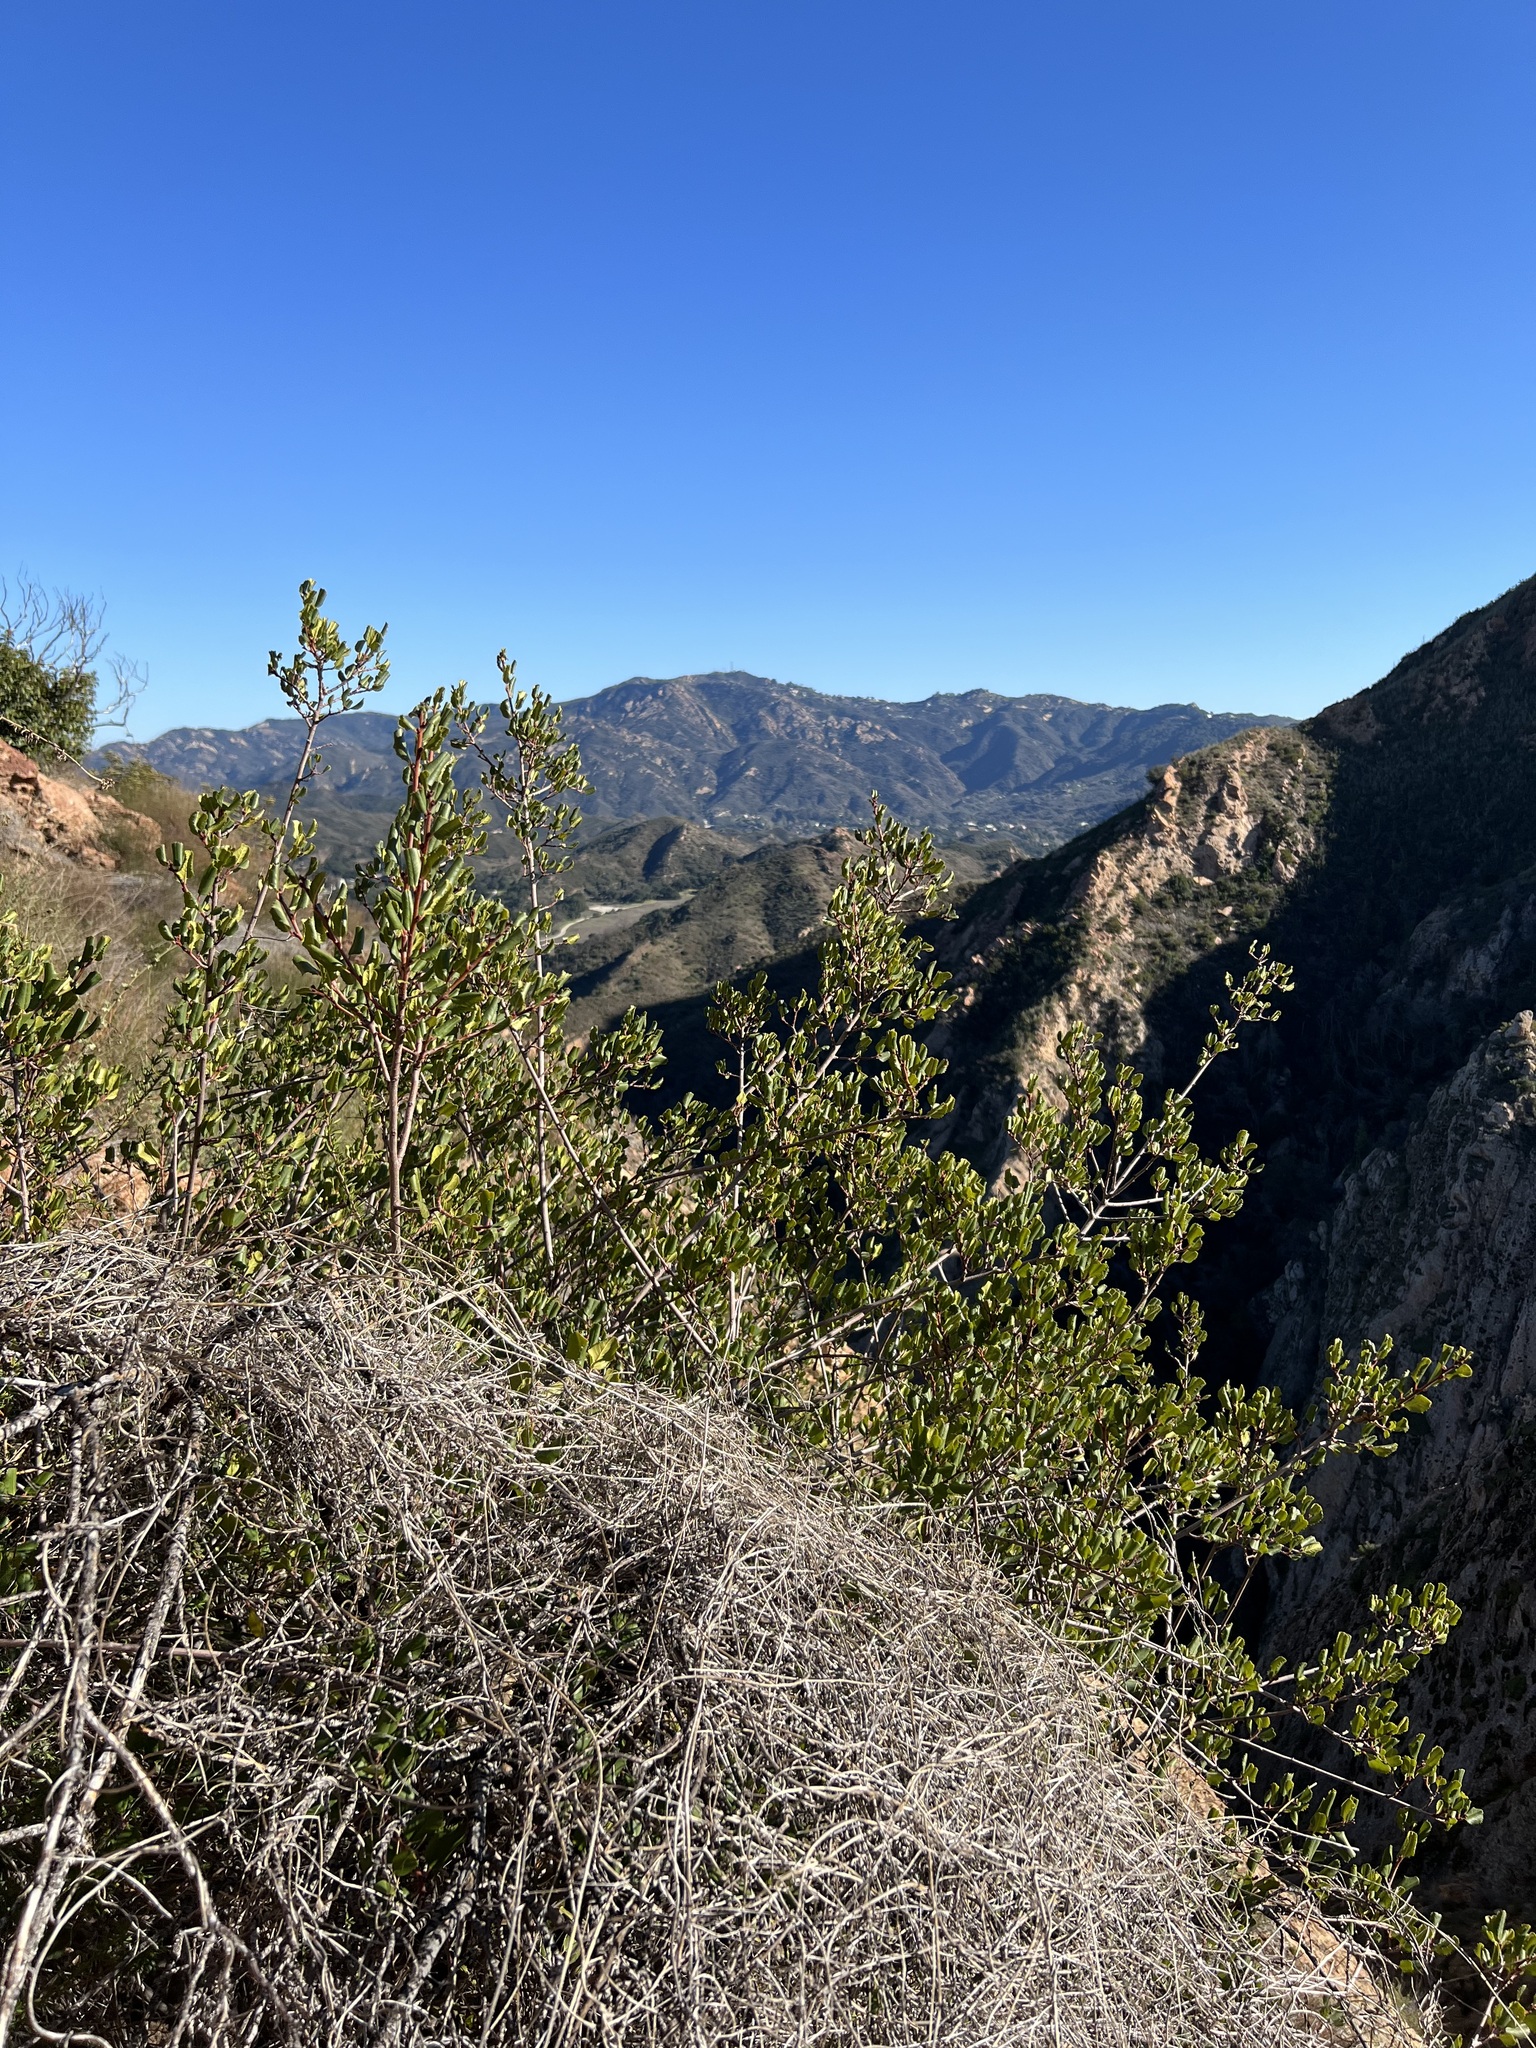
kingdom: Plantae
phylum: Tracheophyta
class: Magnoliopsida
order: Rosales
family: Rhamnaceae
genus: Endotropis
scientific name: Endotropis crocea
